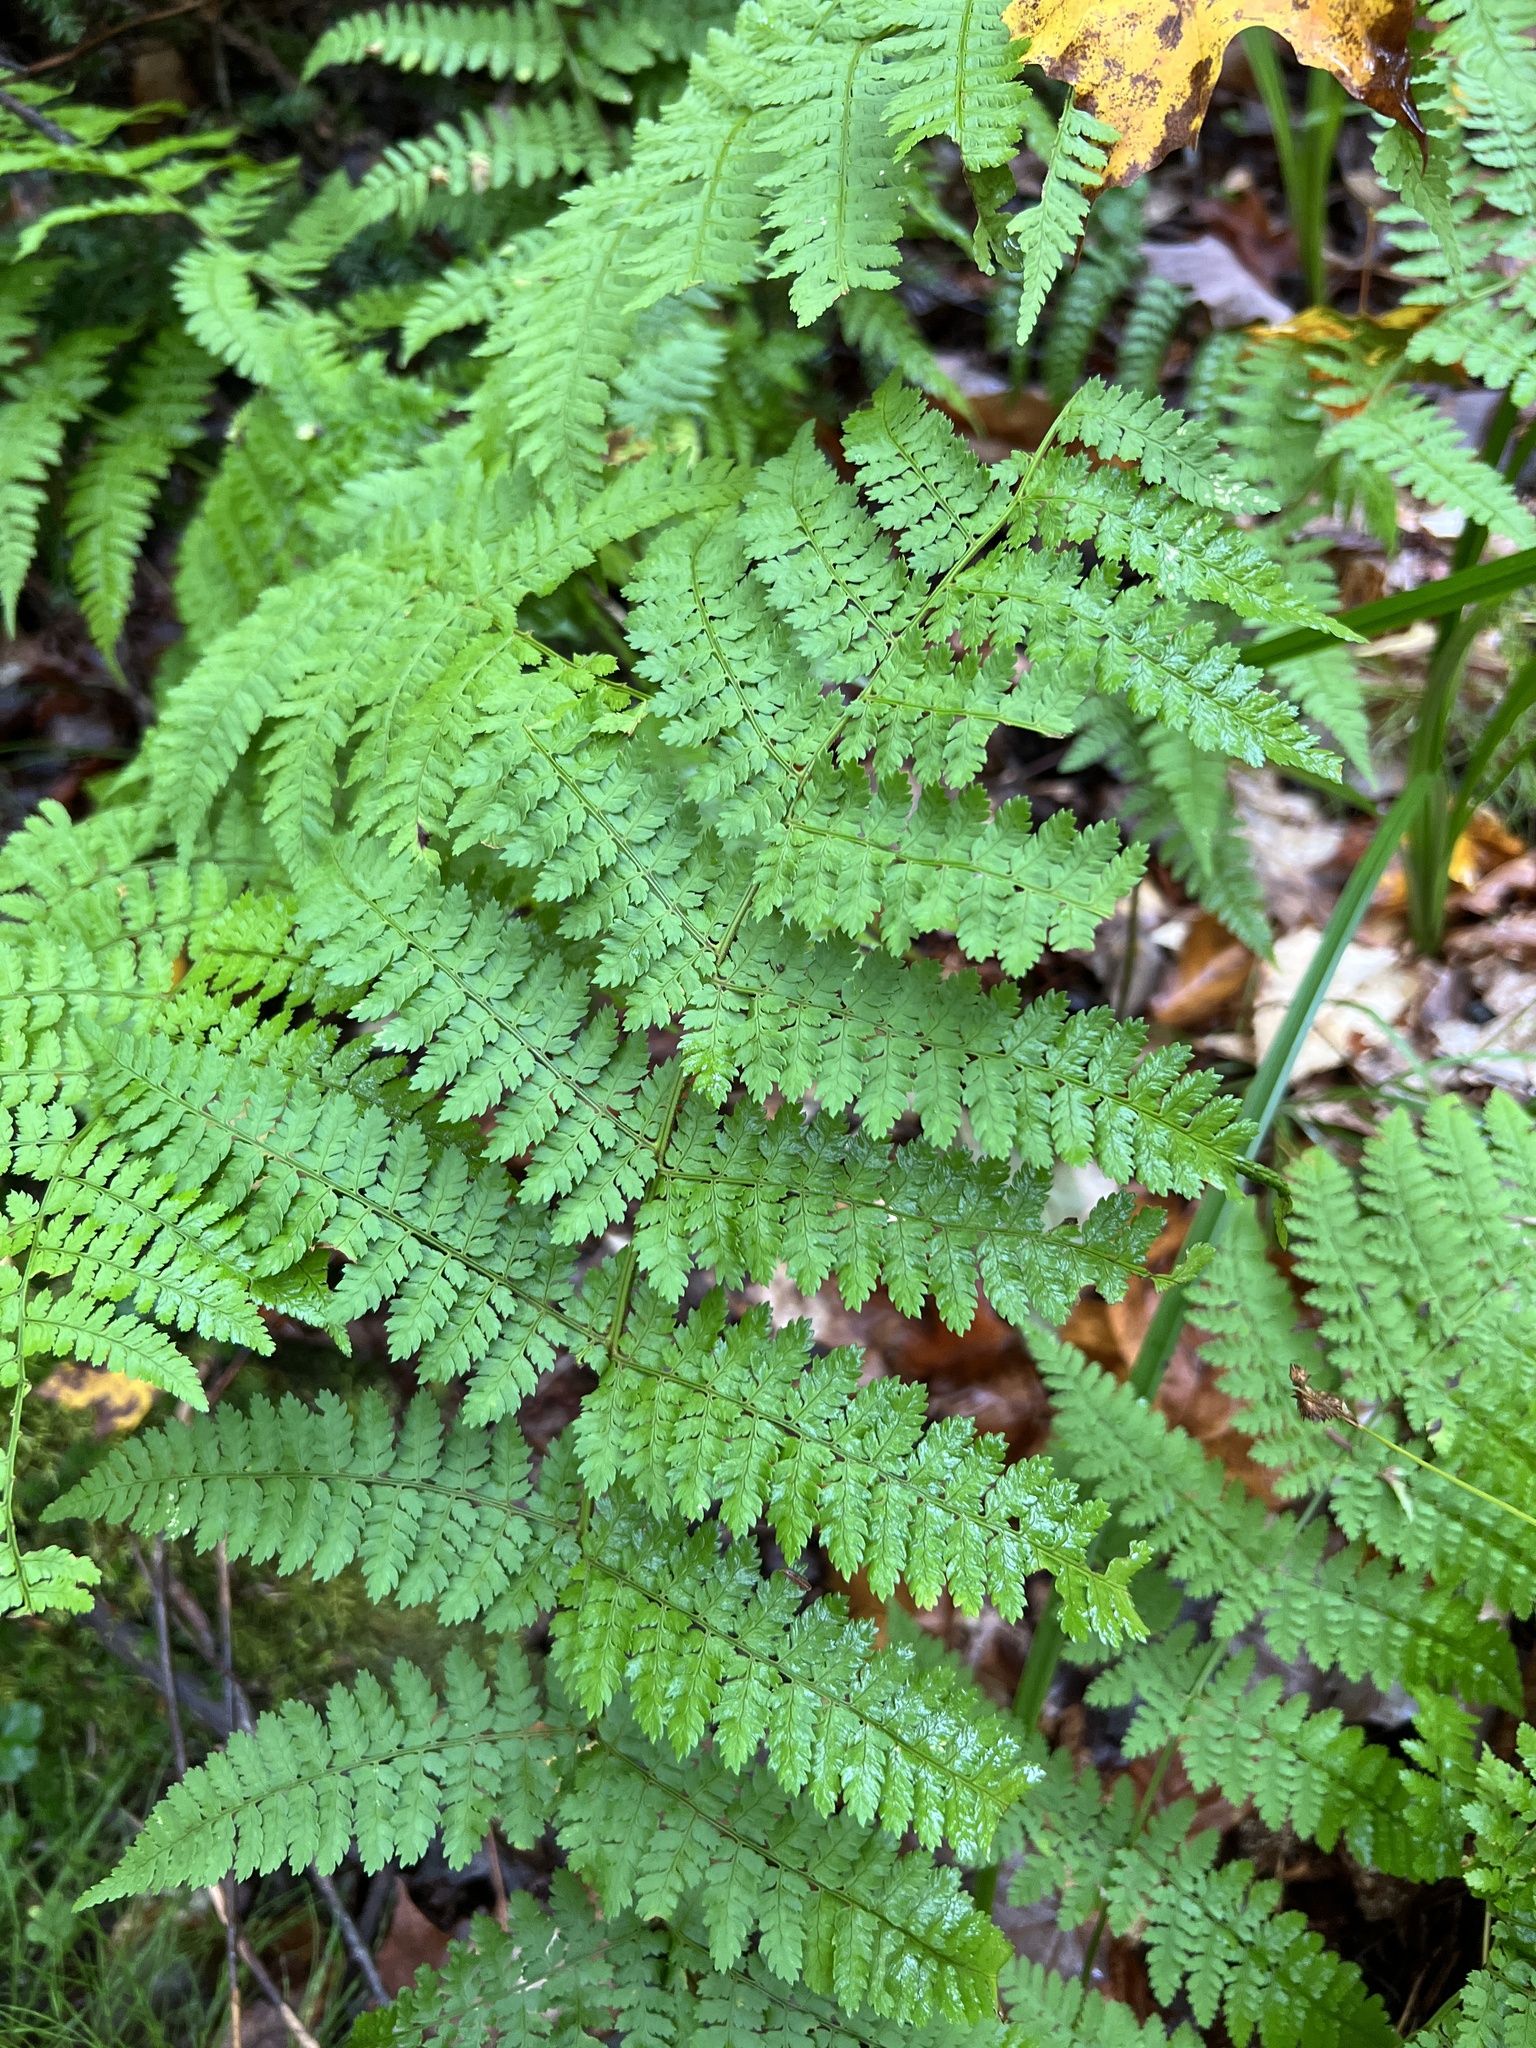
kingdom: Plantae
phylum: Tracheophyta
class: Polypodiopsida
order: Polypodiales
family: Dryopteridaceae
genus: Dryopteris
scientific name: Dryopteris intermedia
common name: Evergreen wood fern
